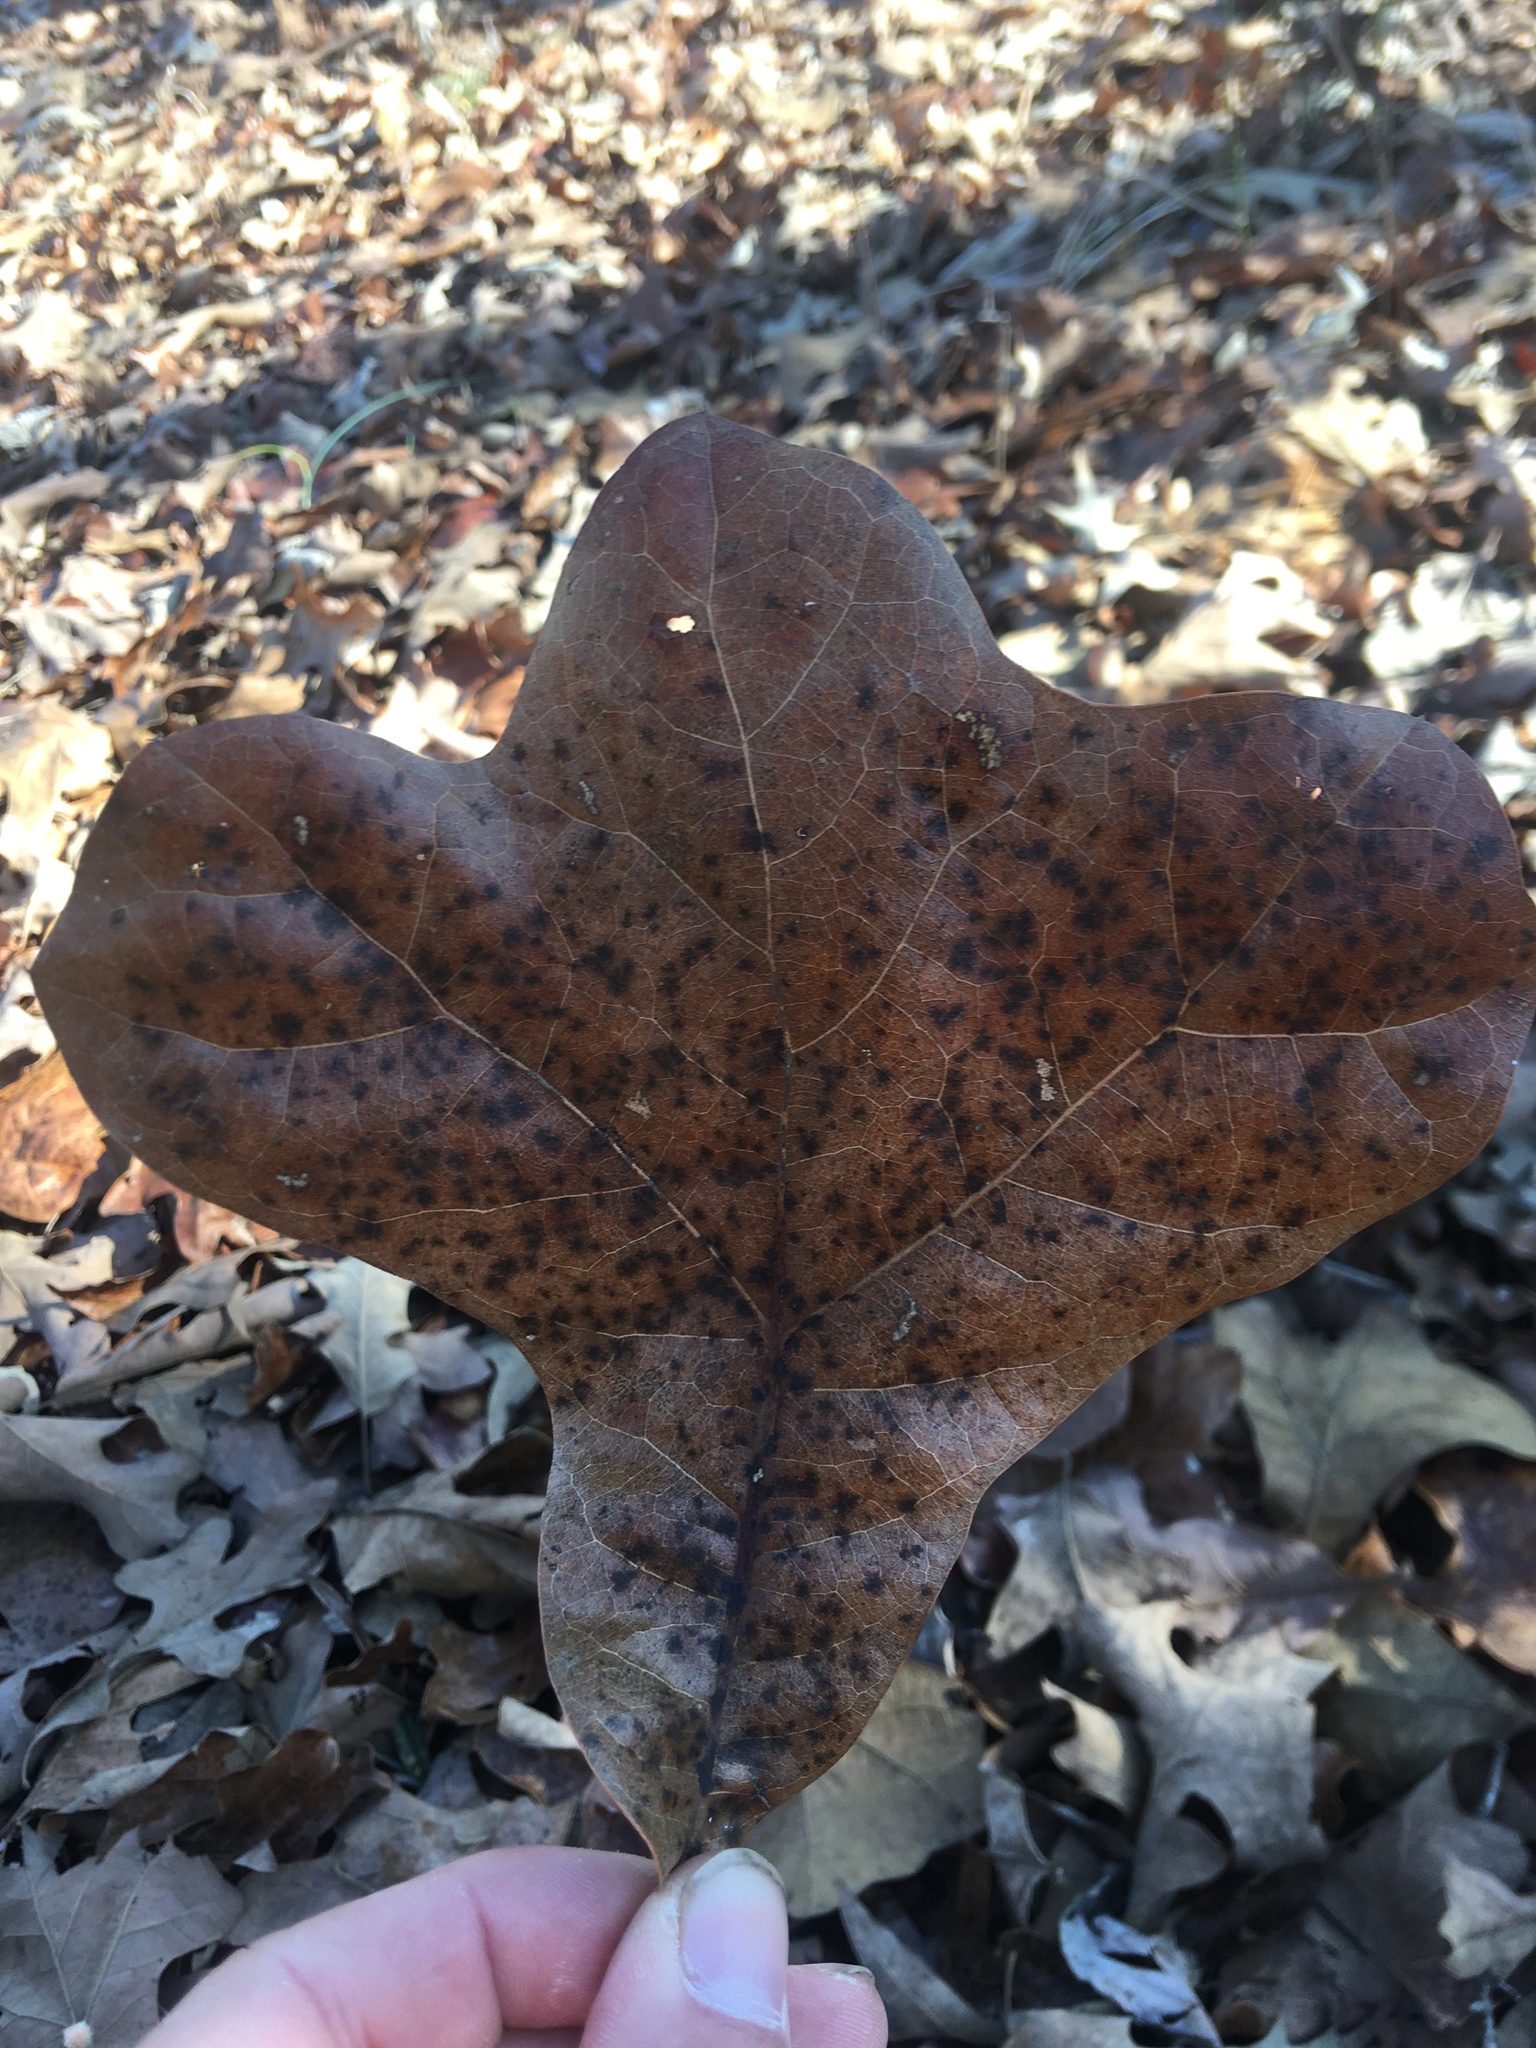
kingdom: Plantae
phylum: Tracheophyta
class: Magnoliopsida
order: Fagales
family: Fagaceae
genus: Quercus
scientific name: Quercus marilandica
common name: Blackjack oak
